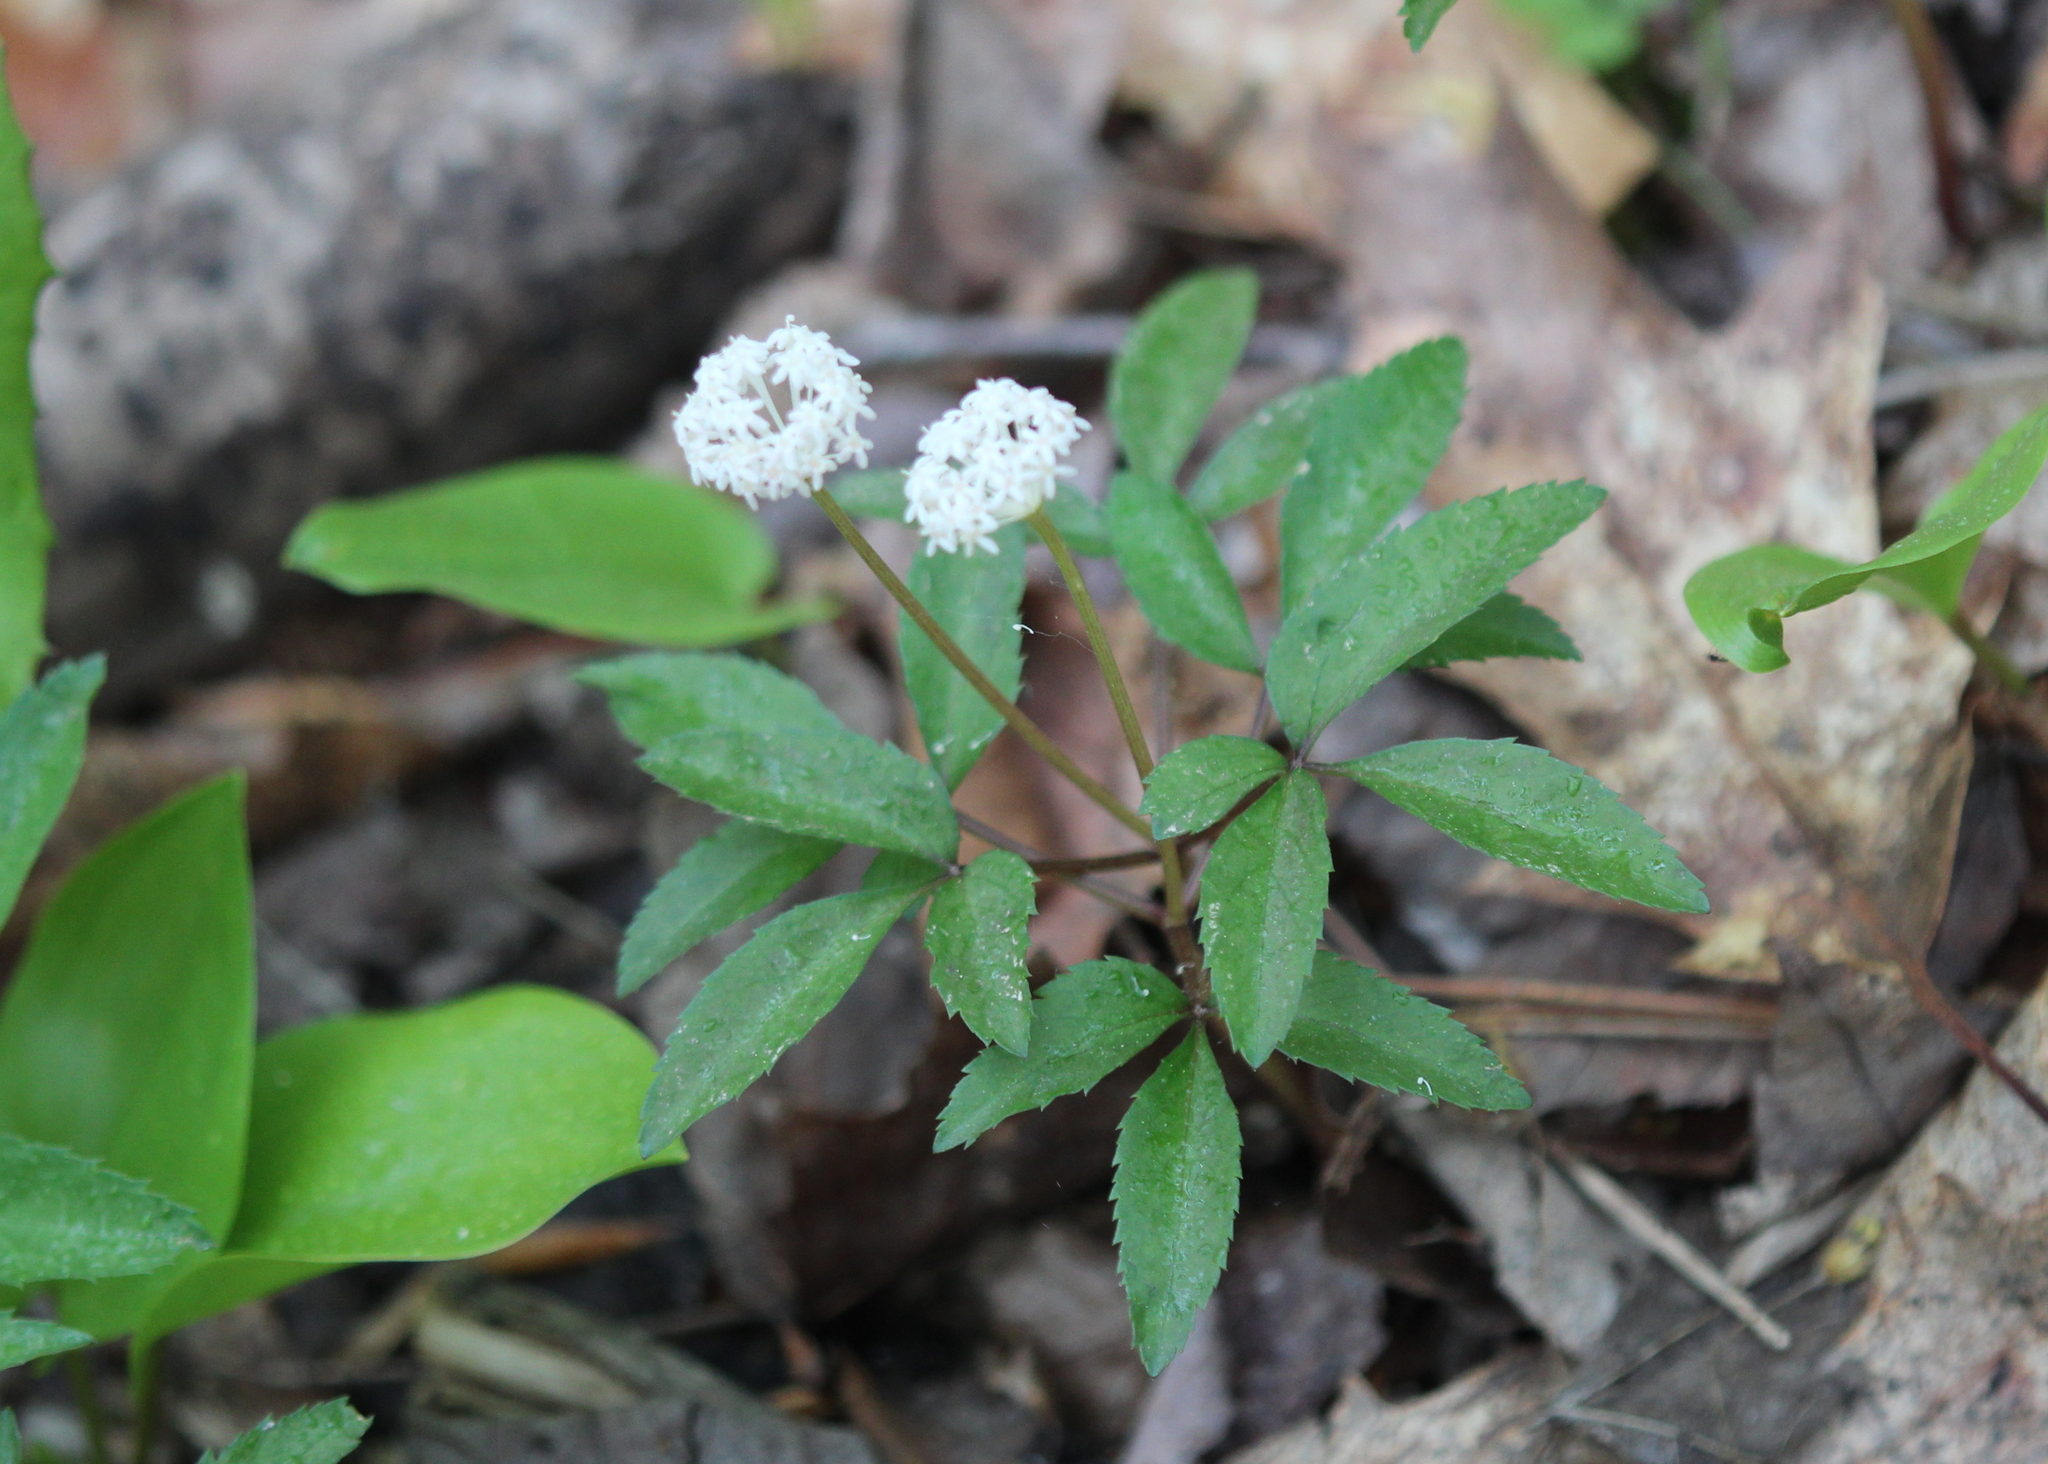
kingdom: Plantae
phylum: Tracheophyta
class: Magnoliopsida
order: Apiales
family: Araliaceae
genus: Panax
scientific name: Panax trifolius
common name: Dwarf ginseng
